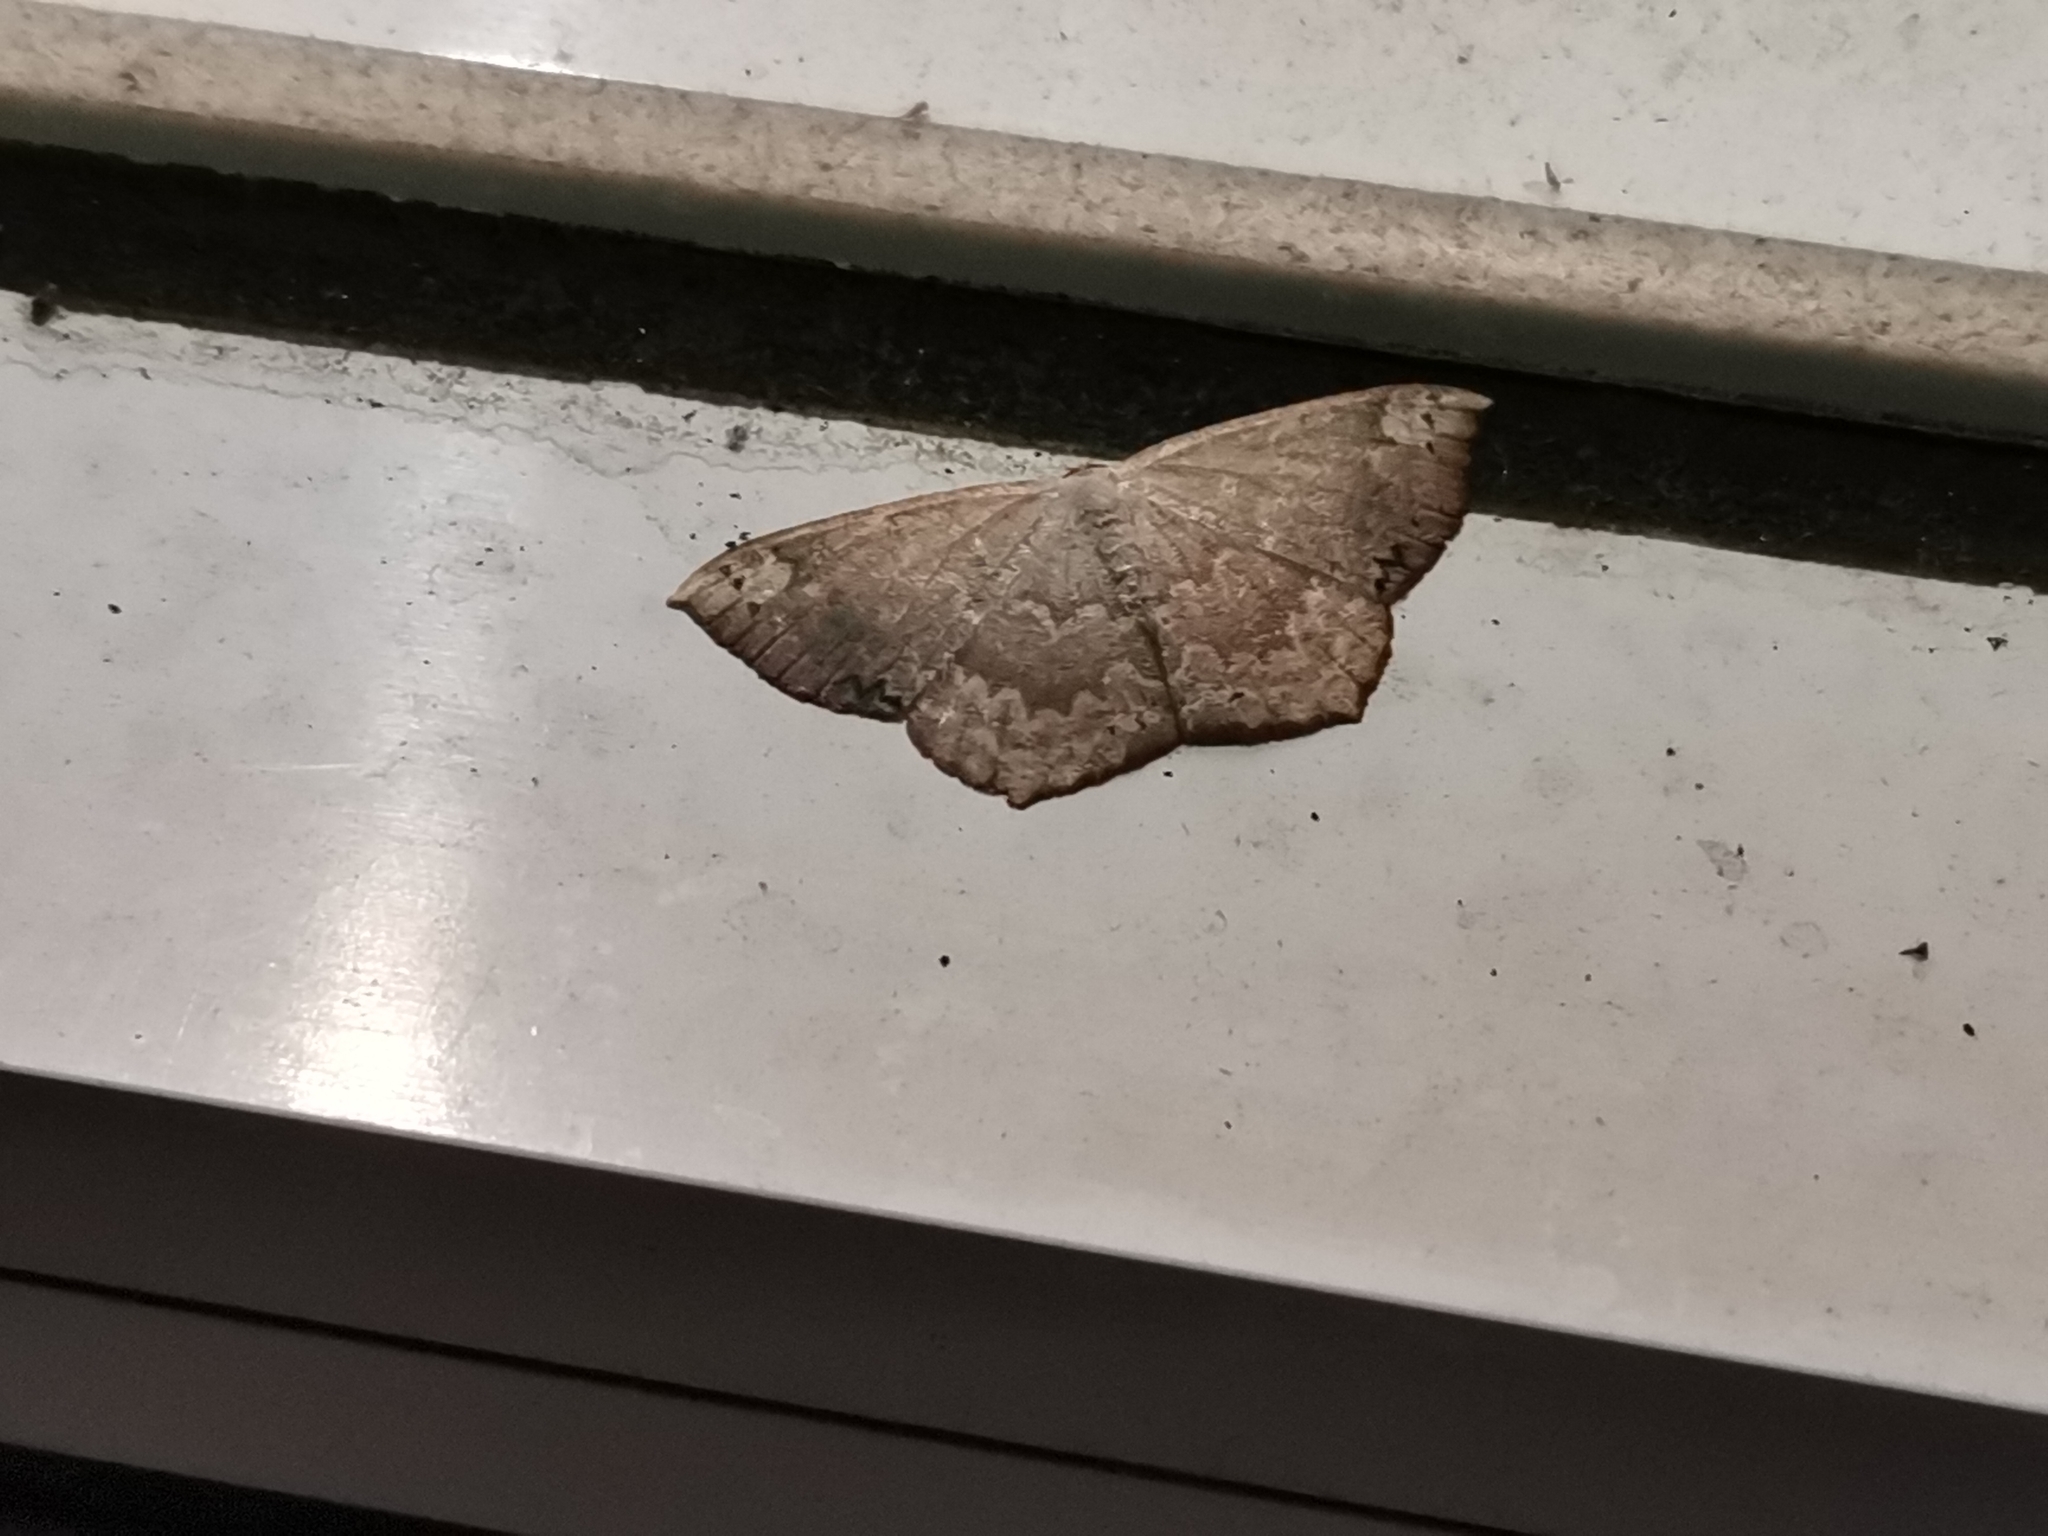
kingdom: Animalia
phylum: Arthropoda
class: Insecta
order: Lepidoptera
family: Geometridae
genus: Peratostega
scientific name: Peratostega deletaria
